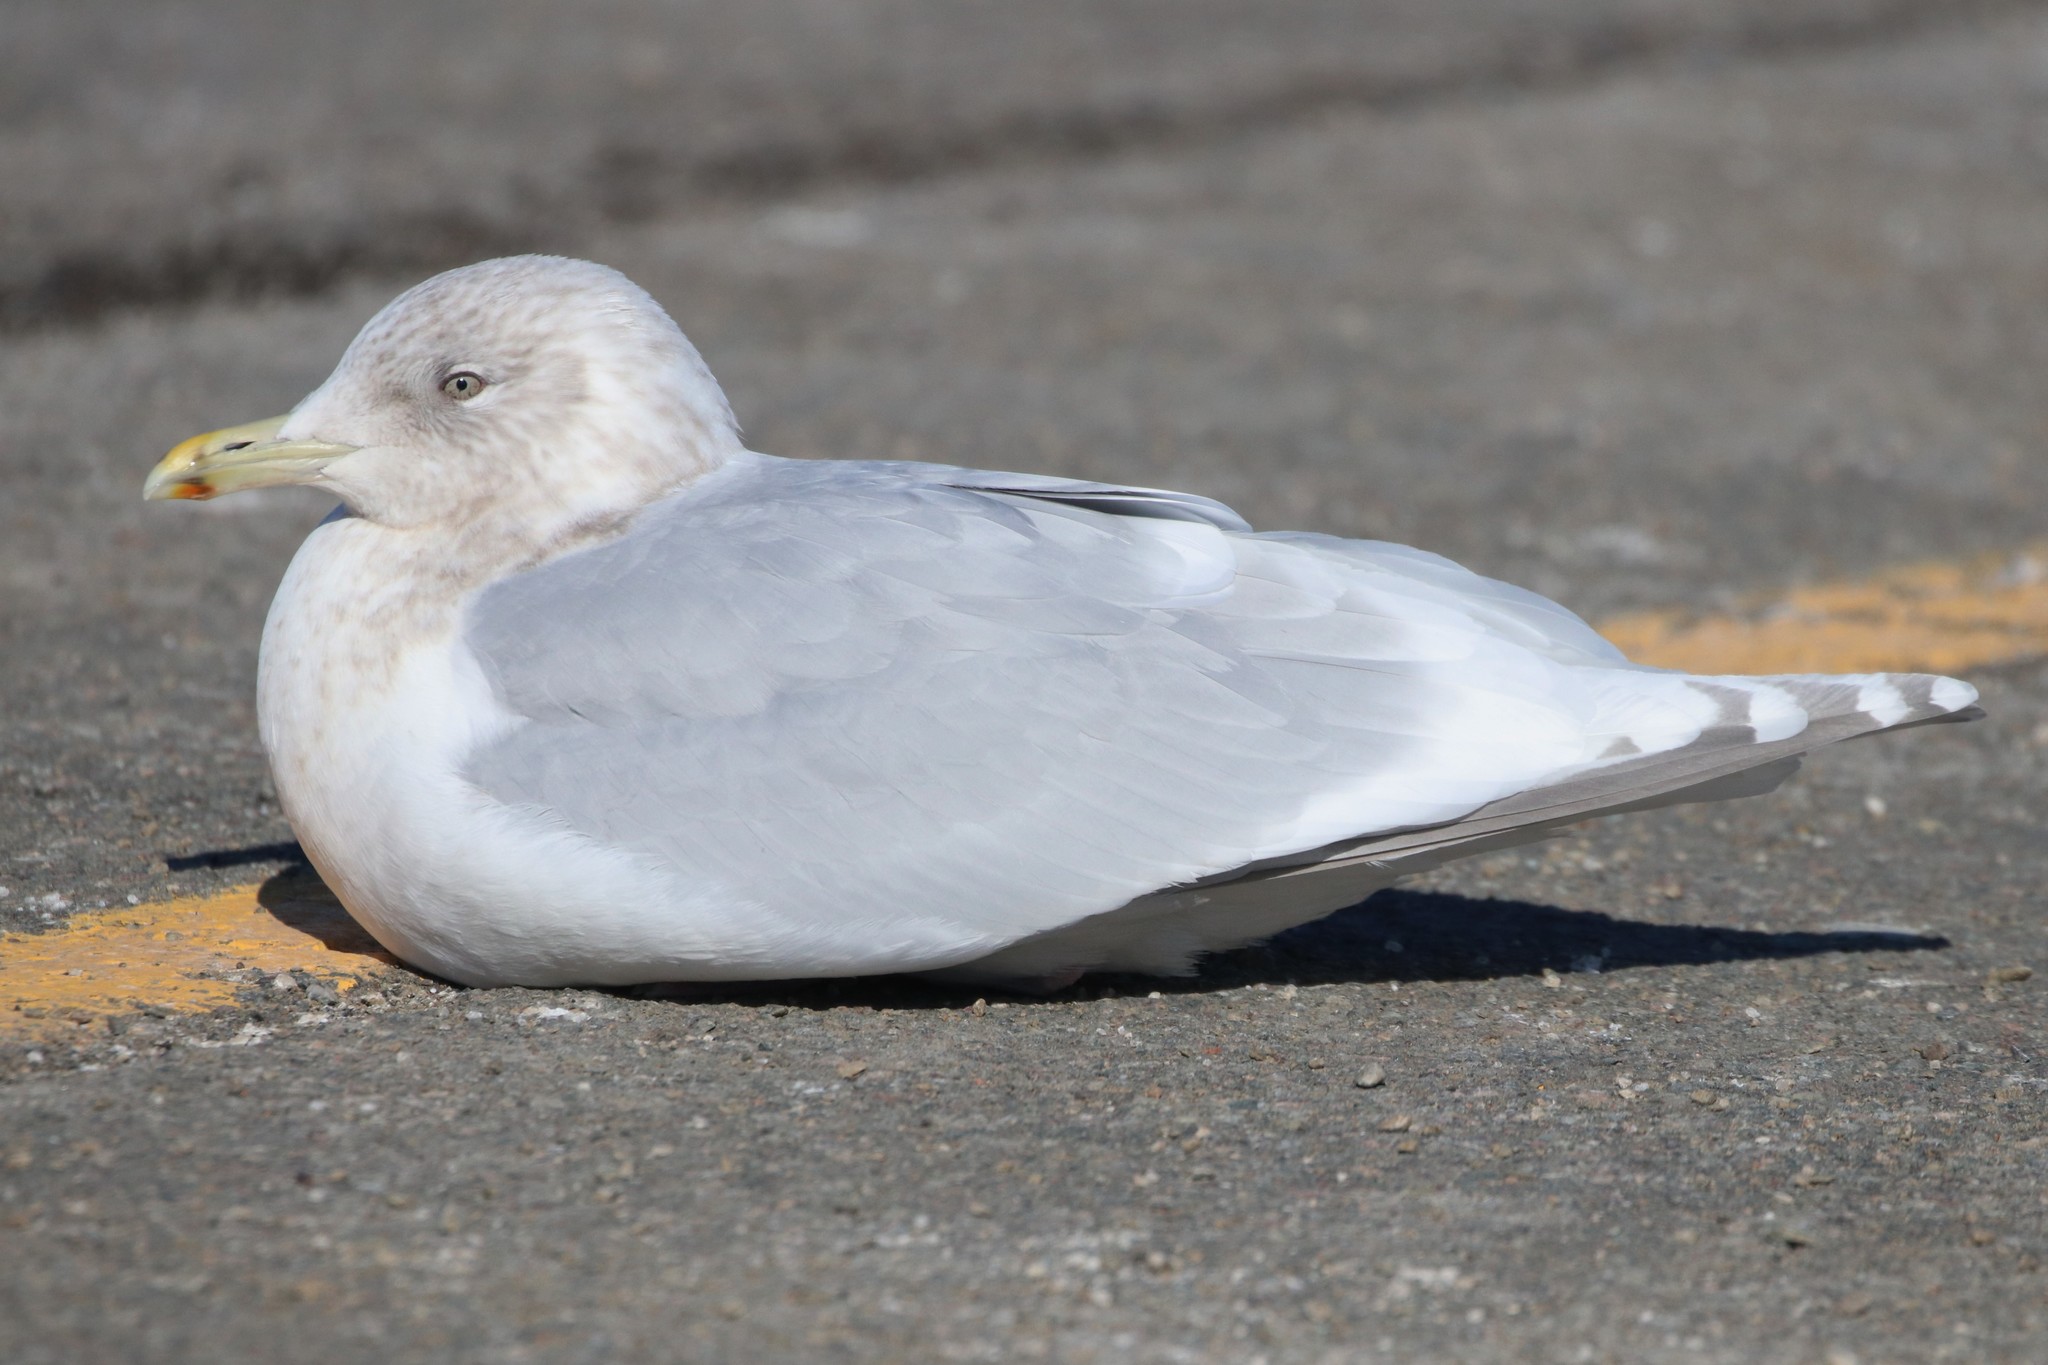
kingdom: Animalia
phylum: Chordata
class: Aves
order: Charadriiformes
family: Laridae
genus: Larus
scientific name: Larus glaucoides
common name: Iceland gull
